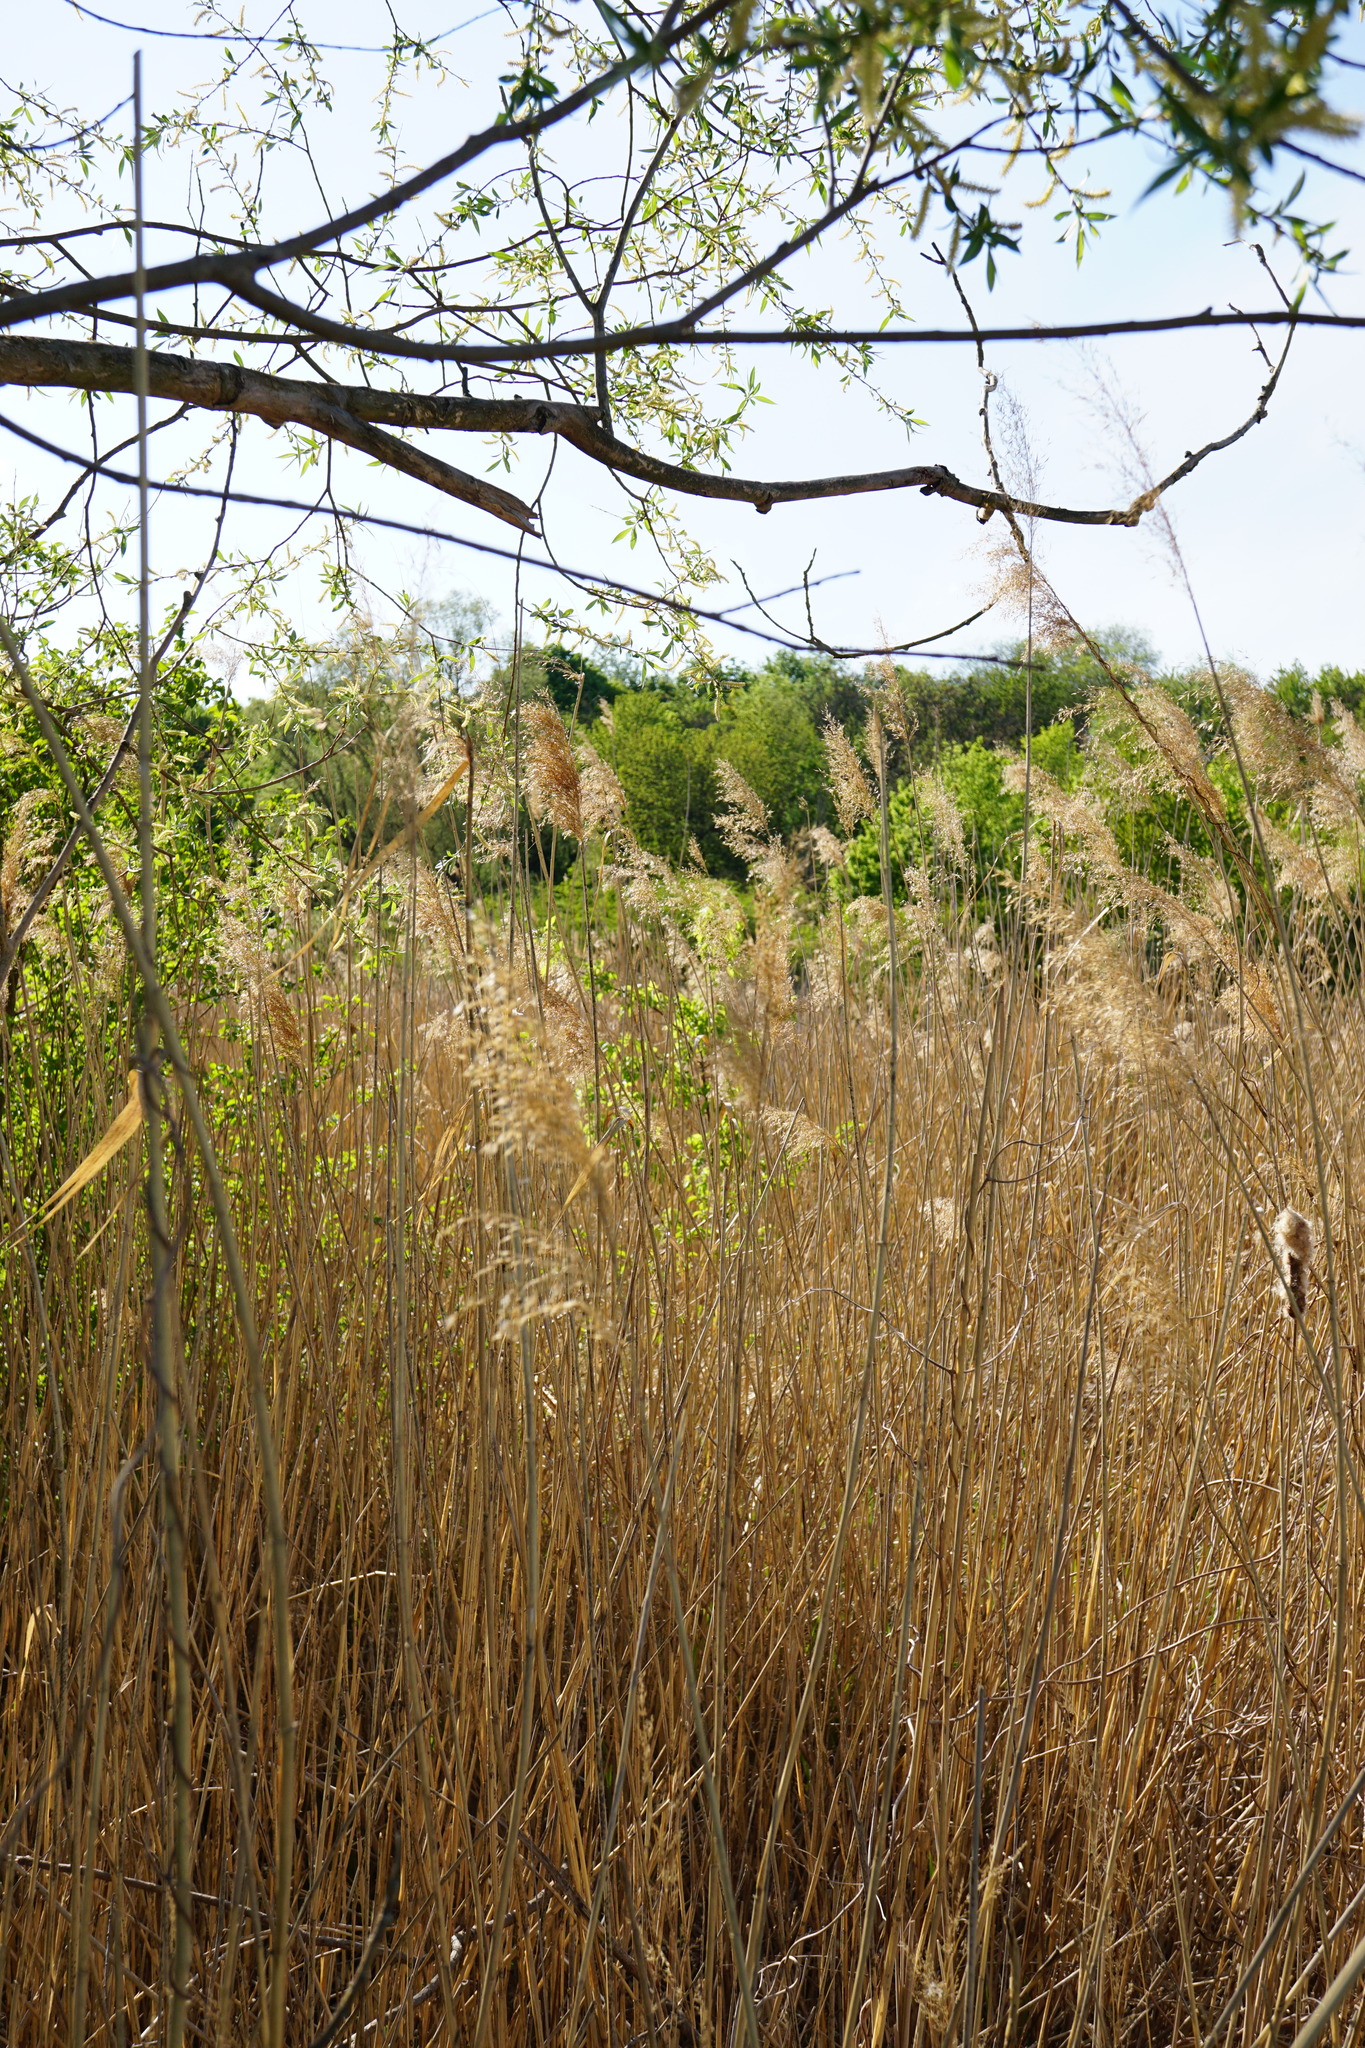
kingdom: Plantae
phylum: Tracheophyta
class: Liliopsida
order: Poales
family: Poaceae
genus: Phragmites
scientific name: Phragmites australis
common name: Common reed
